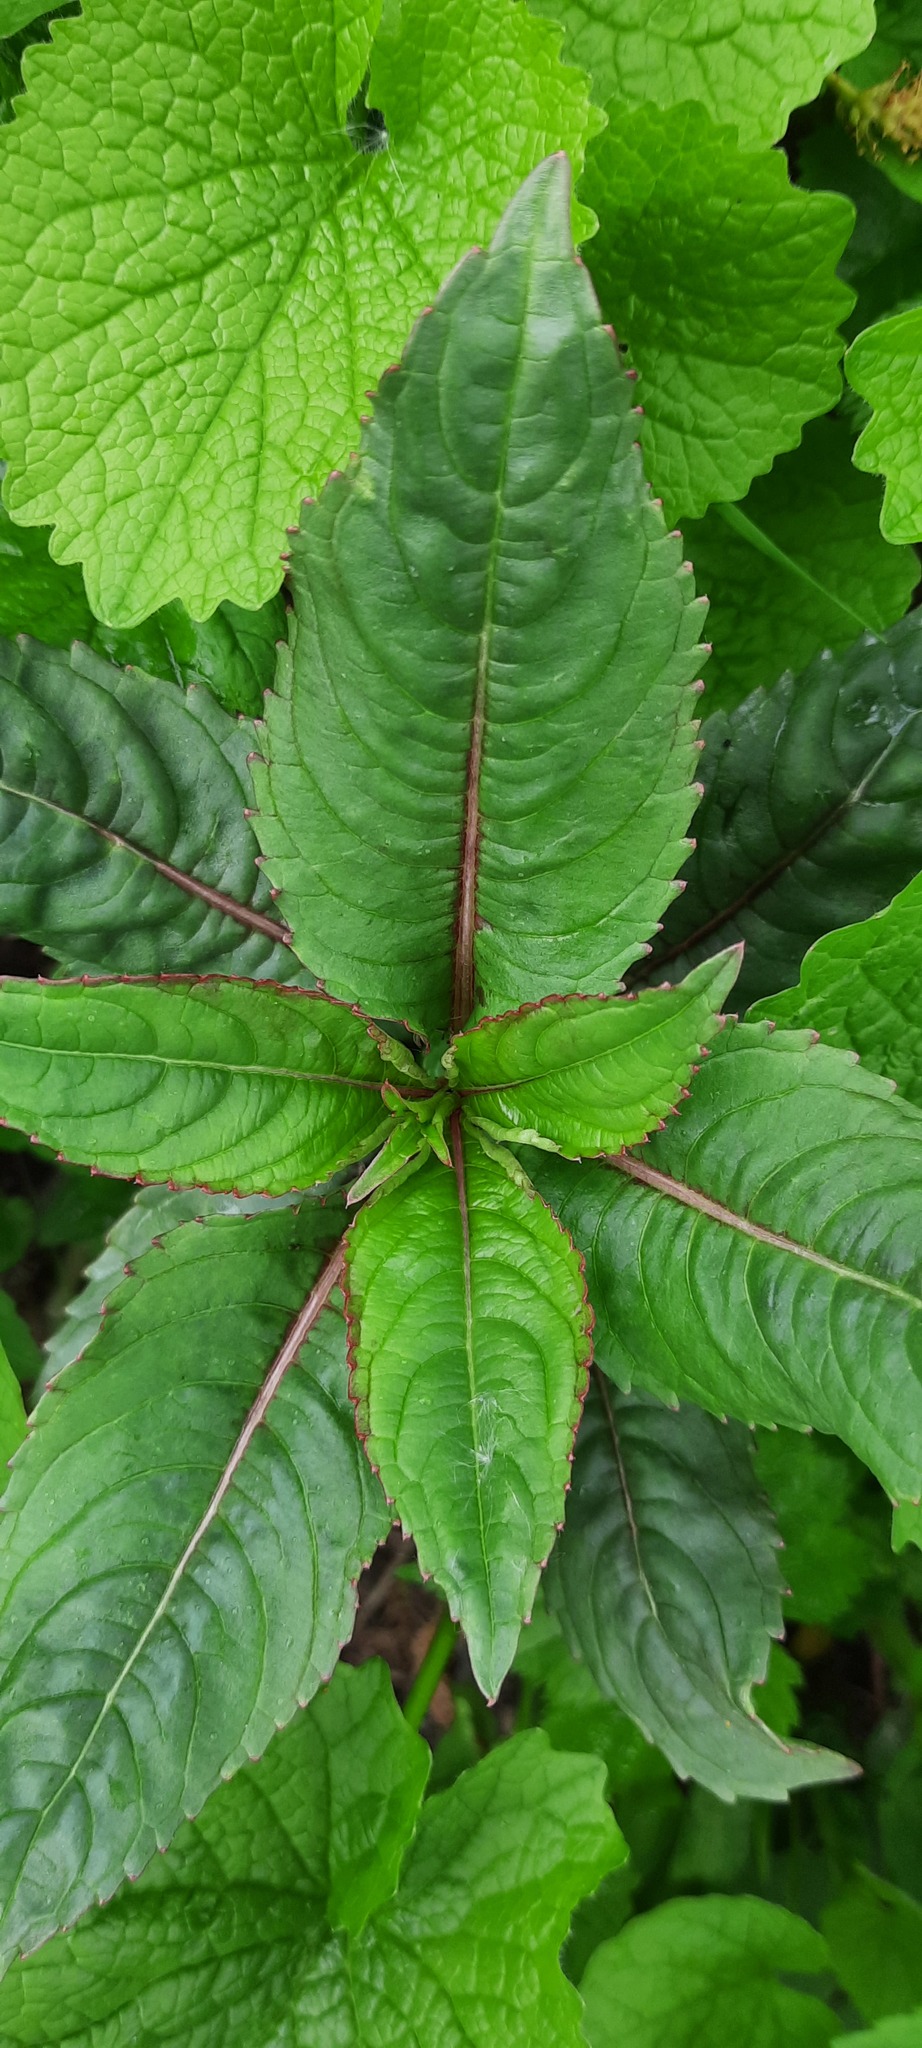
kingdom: Plantae
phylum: Tracheophyta
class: Magnoliopsida
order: Ericales
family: Balsaminaceae
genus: Impatiens
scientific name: Impatiens glandulifera
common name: Himalayan balsam
